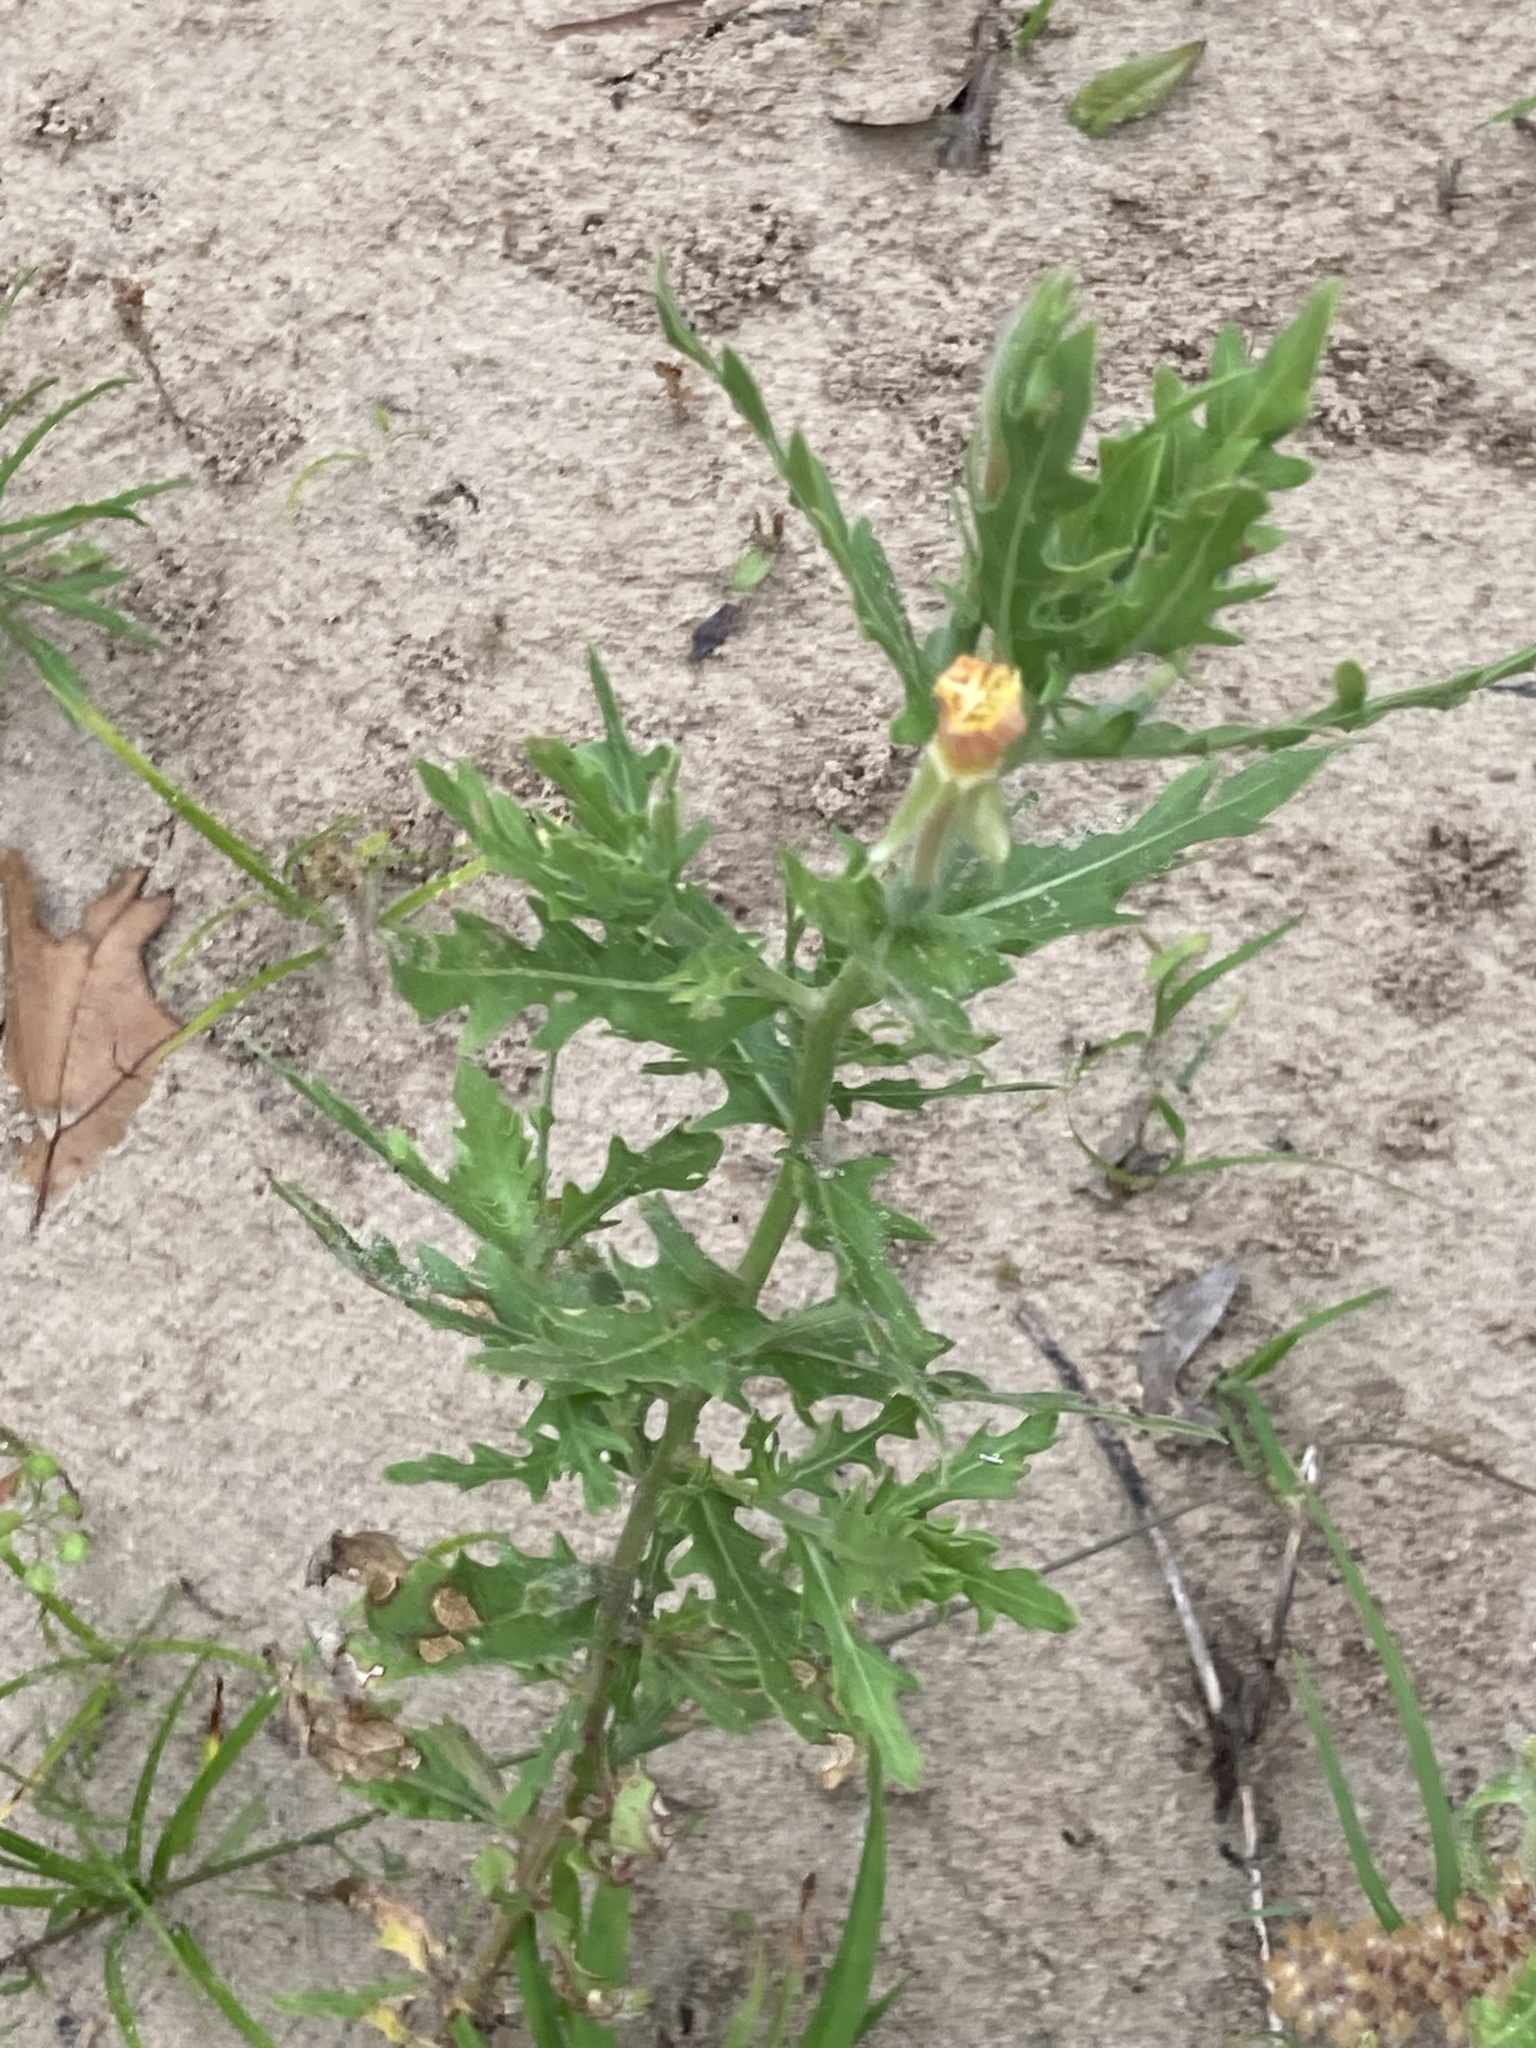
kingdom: Plantae
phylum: Tracheophyta
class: Magnoliopsida
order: Myrtales
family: Onagraceae
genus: Oenothera
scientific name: Oenothera laciniata
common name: Cut-leaved evening-primrose
